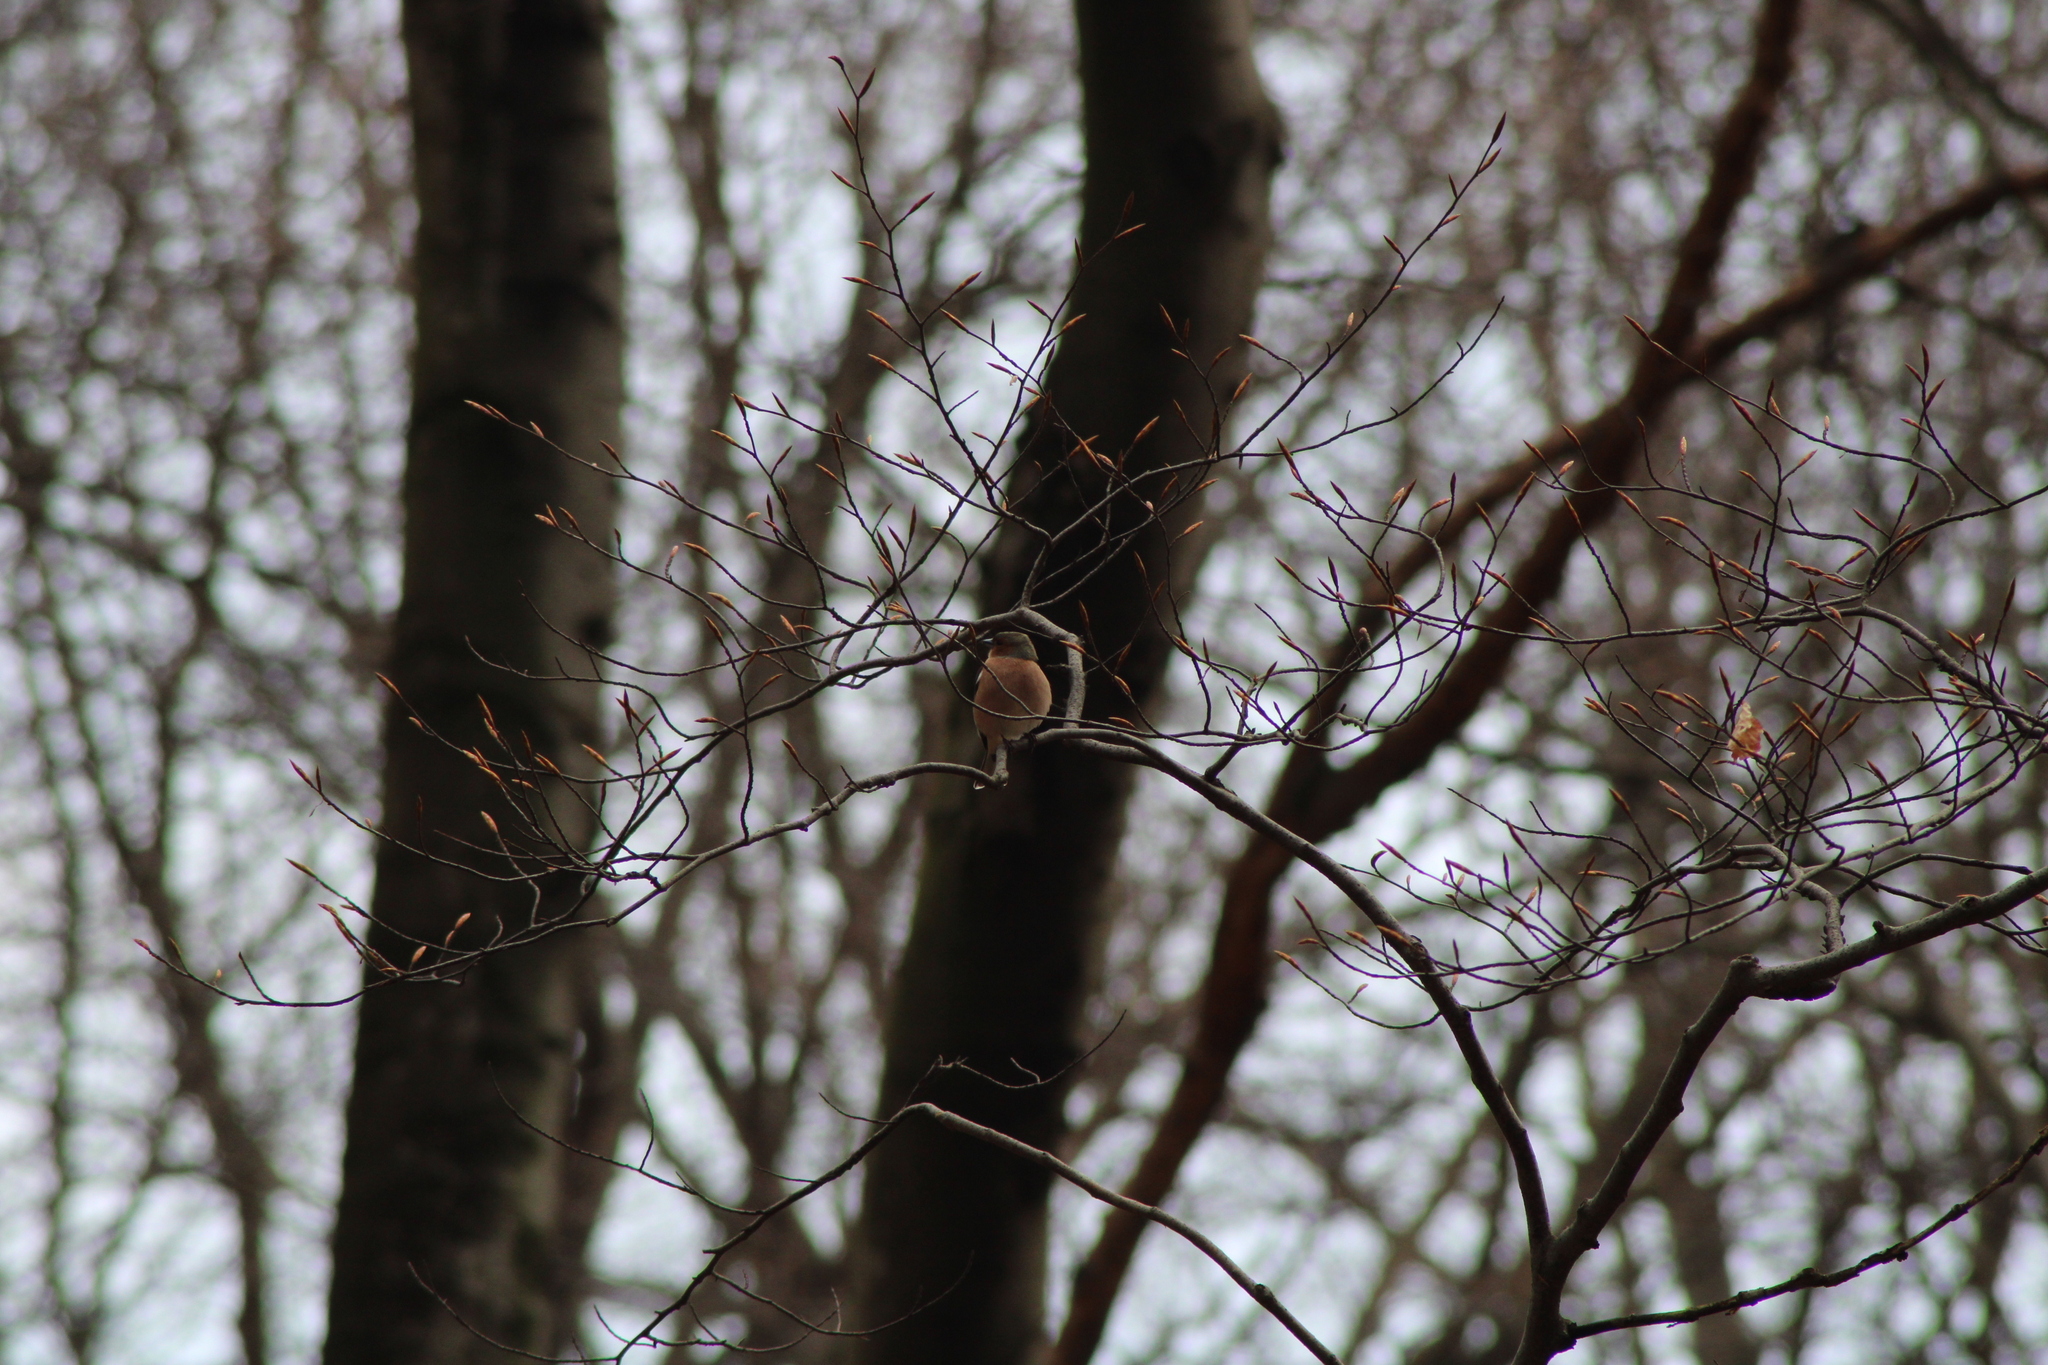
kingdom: Animalia
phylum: Chordata
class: Aves
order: Passeriformes
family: Fringillidae
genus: Fringilla
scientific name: Fringilla coelebs
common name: Common chaffinch
